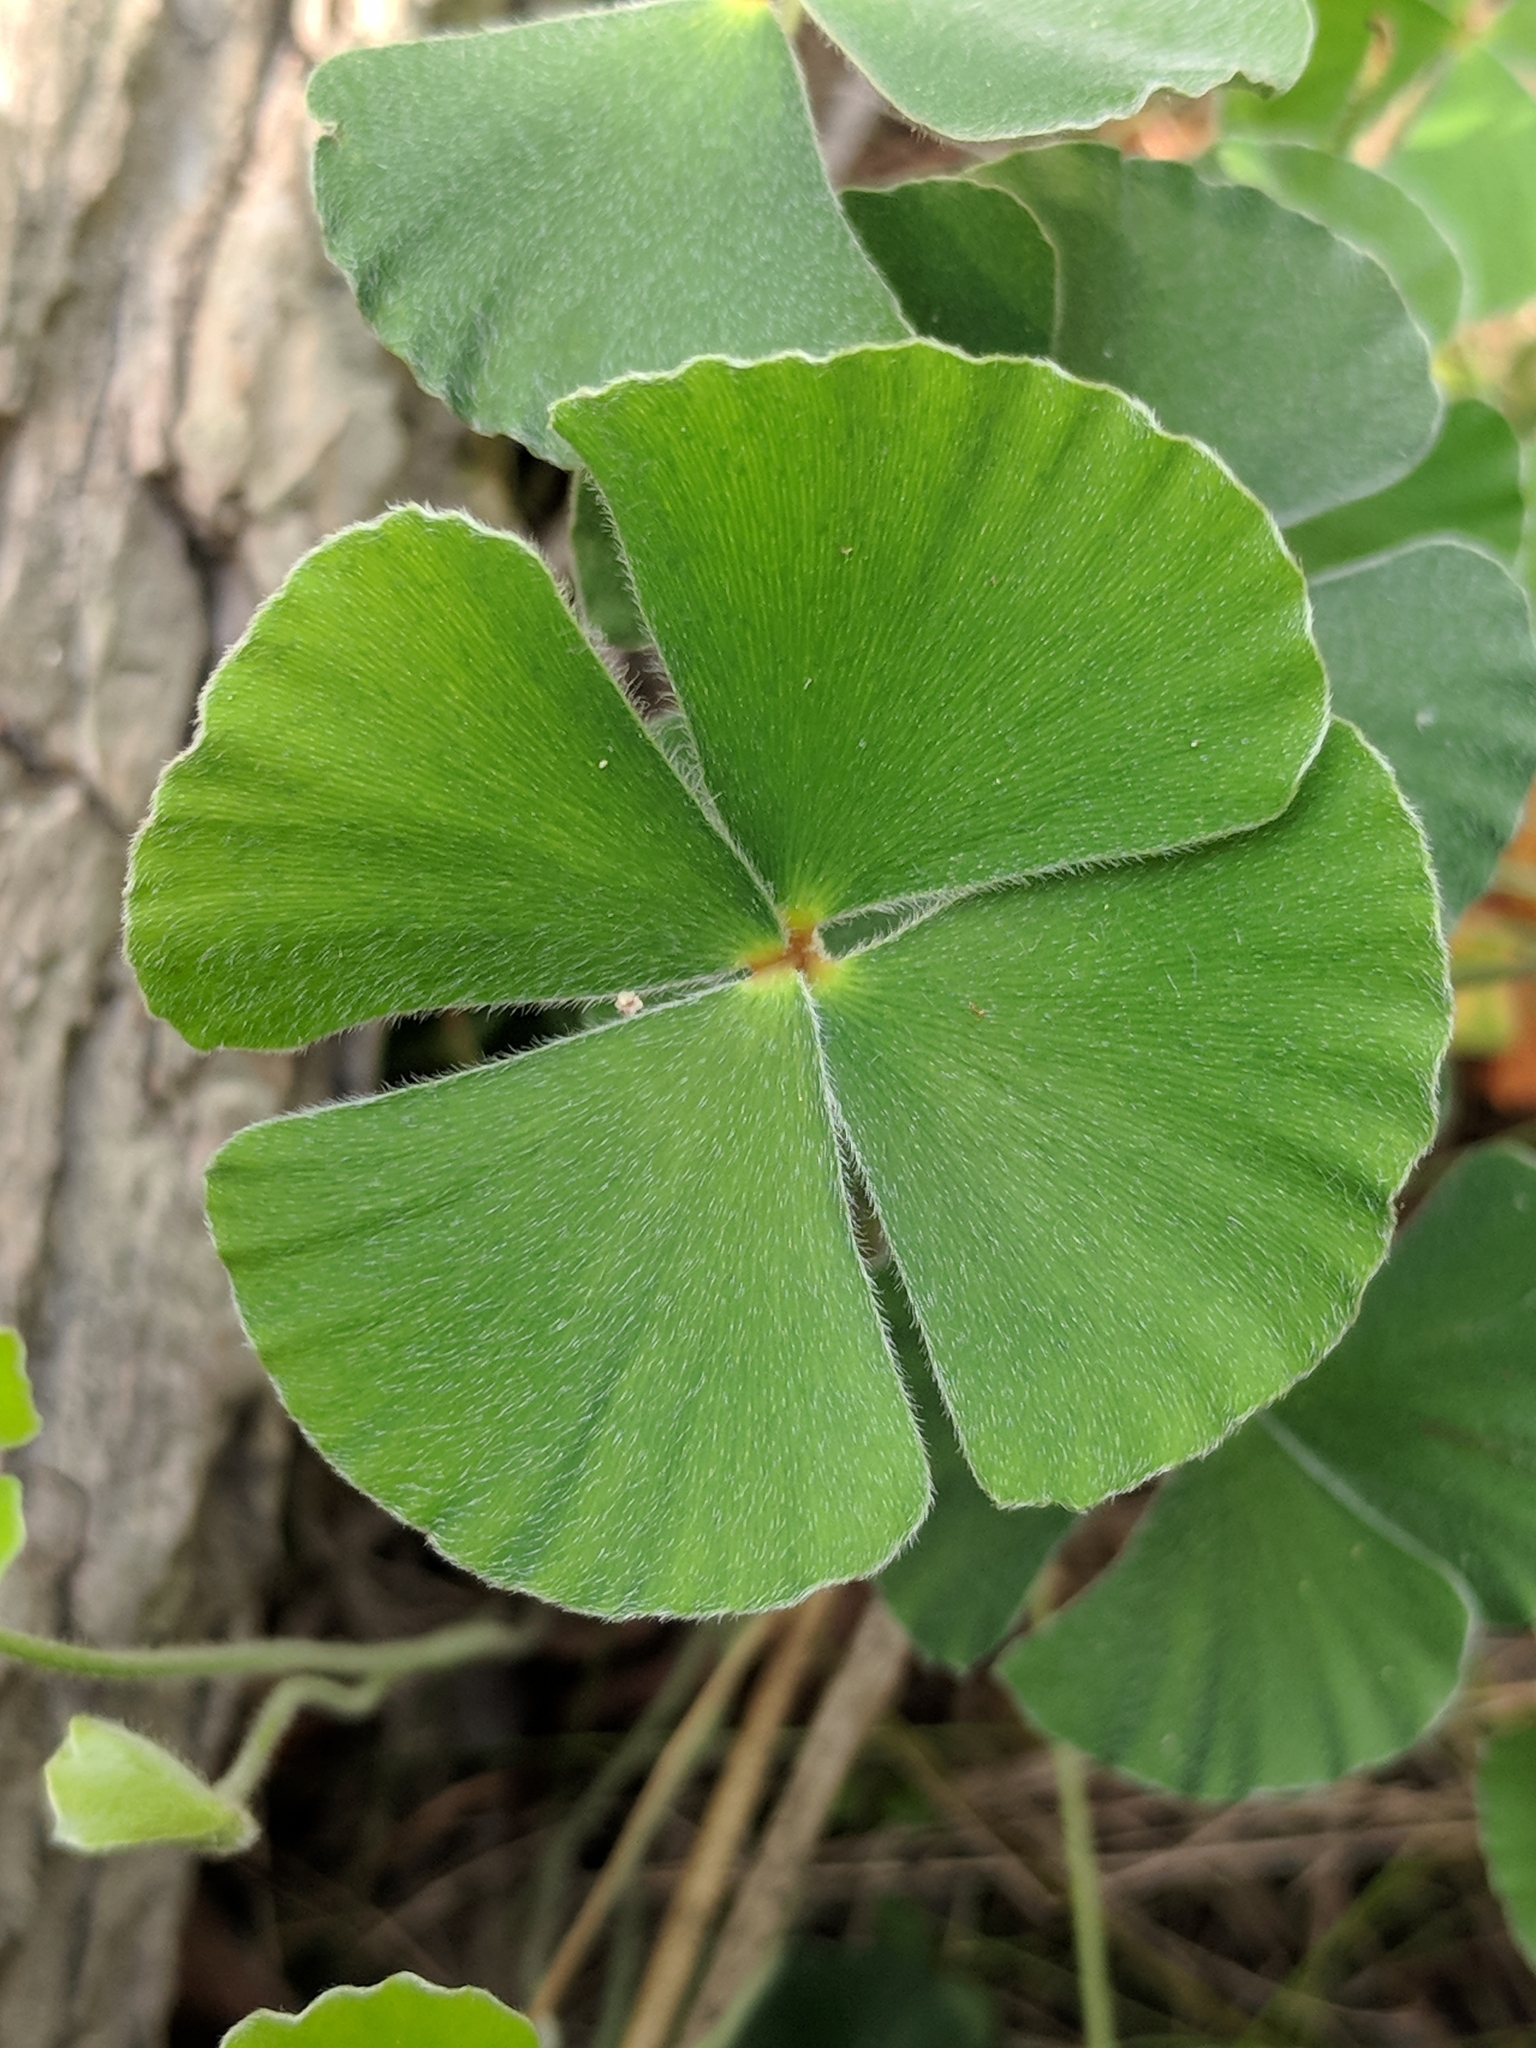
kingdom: Plantae
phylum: Tracheophyta
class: Polypodiopsida
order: Salviniales
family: Marsileaceae
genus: Marsilea
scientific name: Marsilea macropoda
